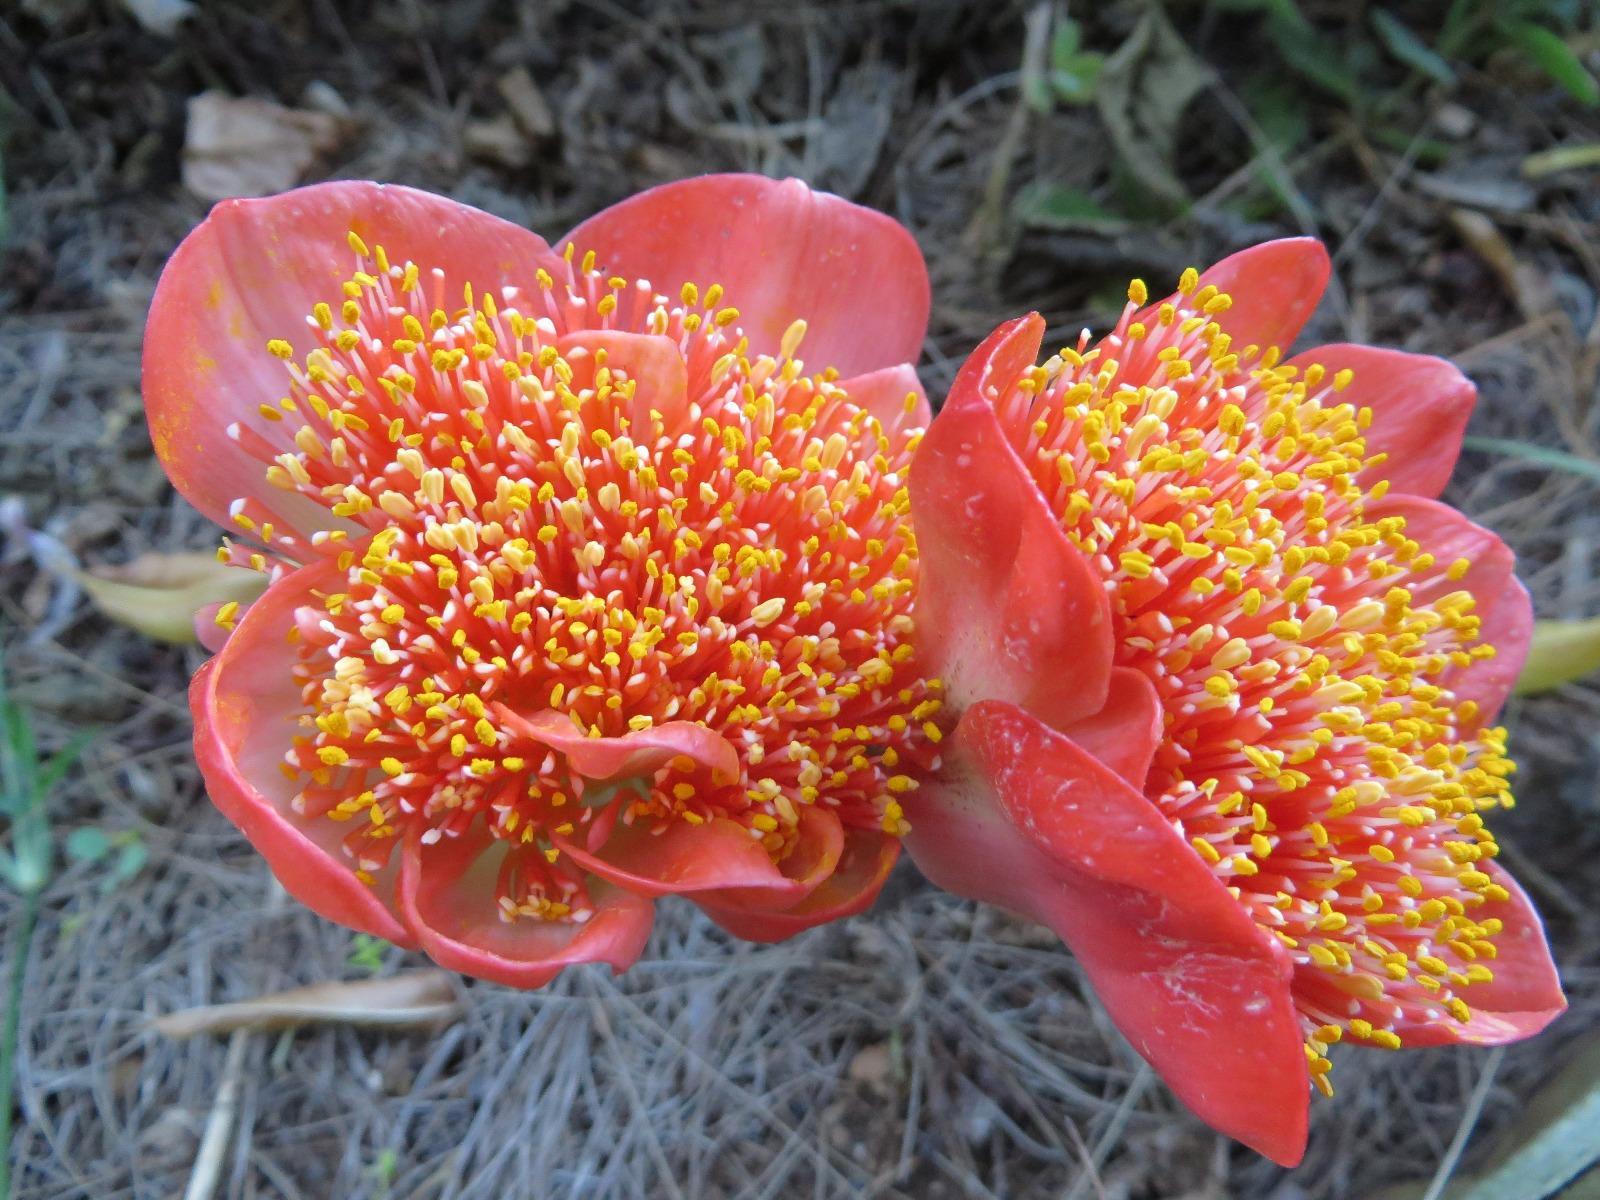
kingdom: Plantae
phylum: Tracheophyta
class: Liliopsida
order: Asparagales
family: Amaryllidaceae
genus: Haemanthus
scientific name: Haemanthus coccineus
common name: Cape-tulip
